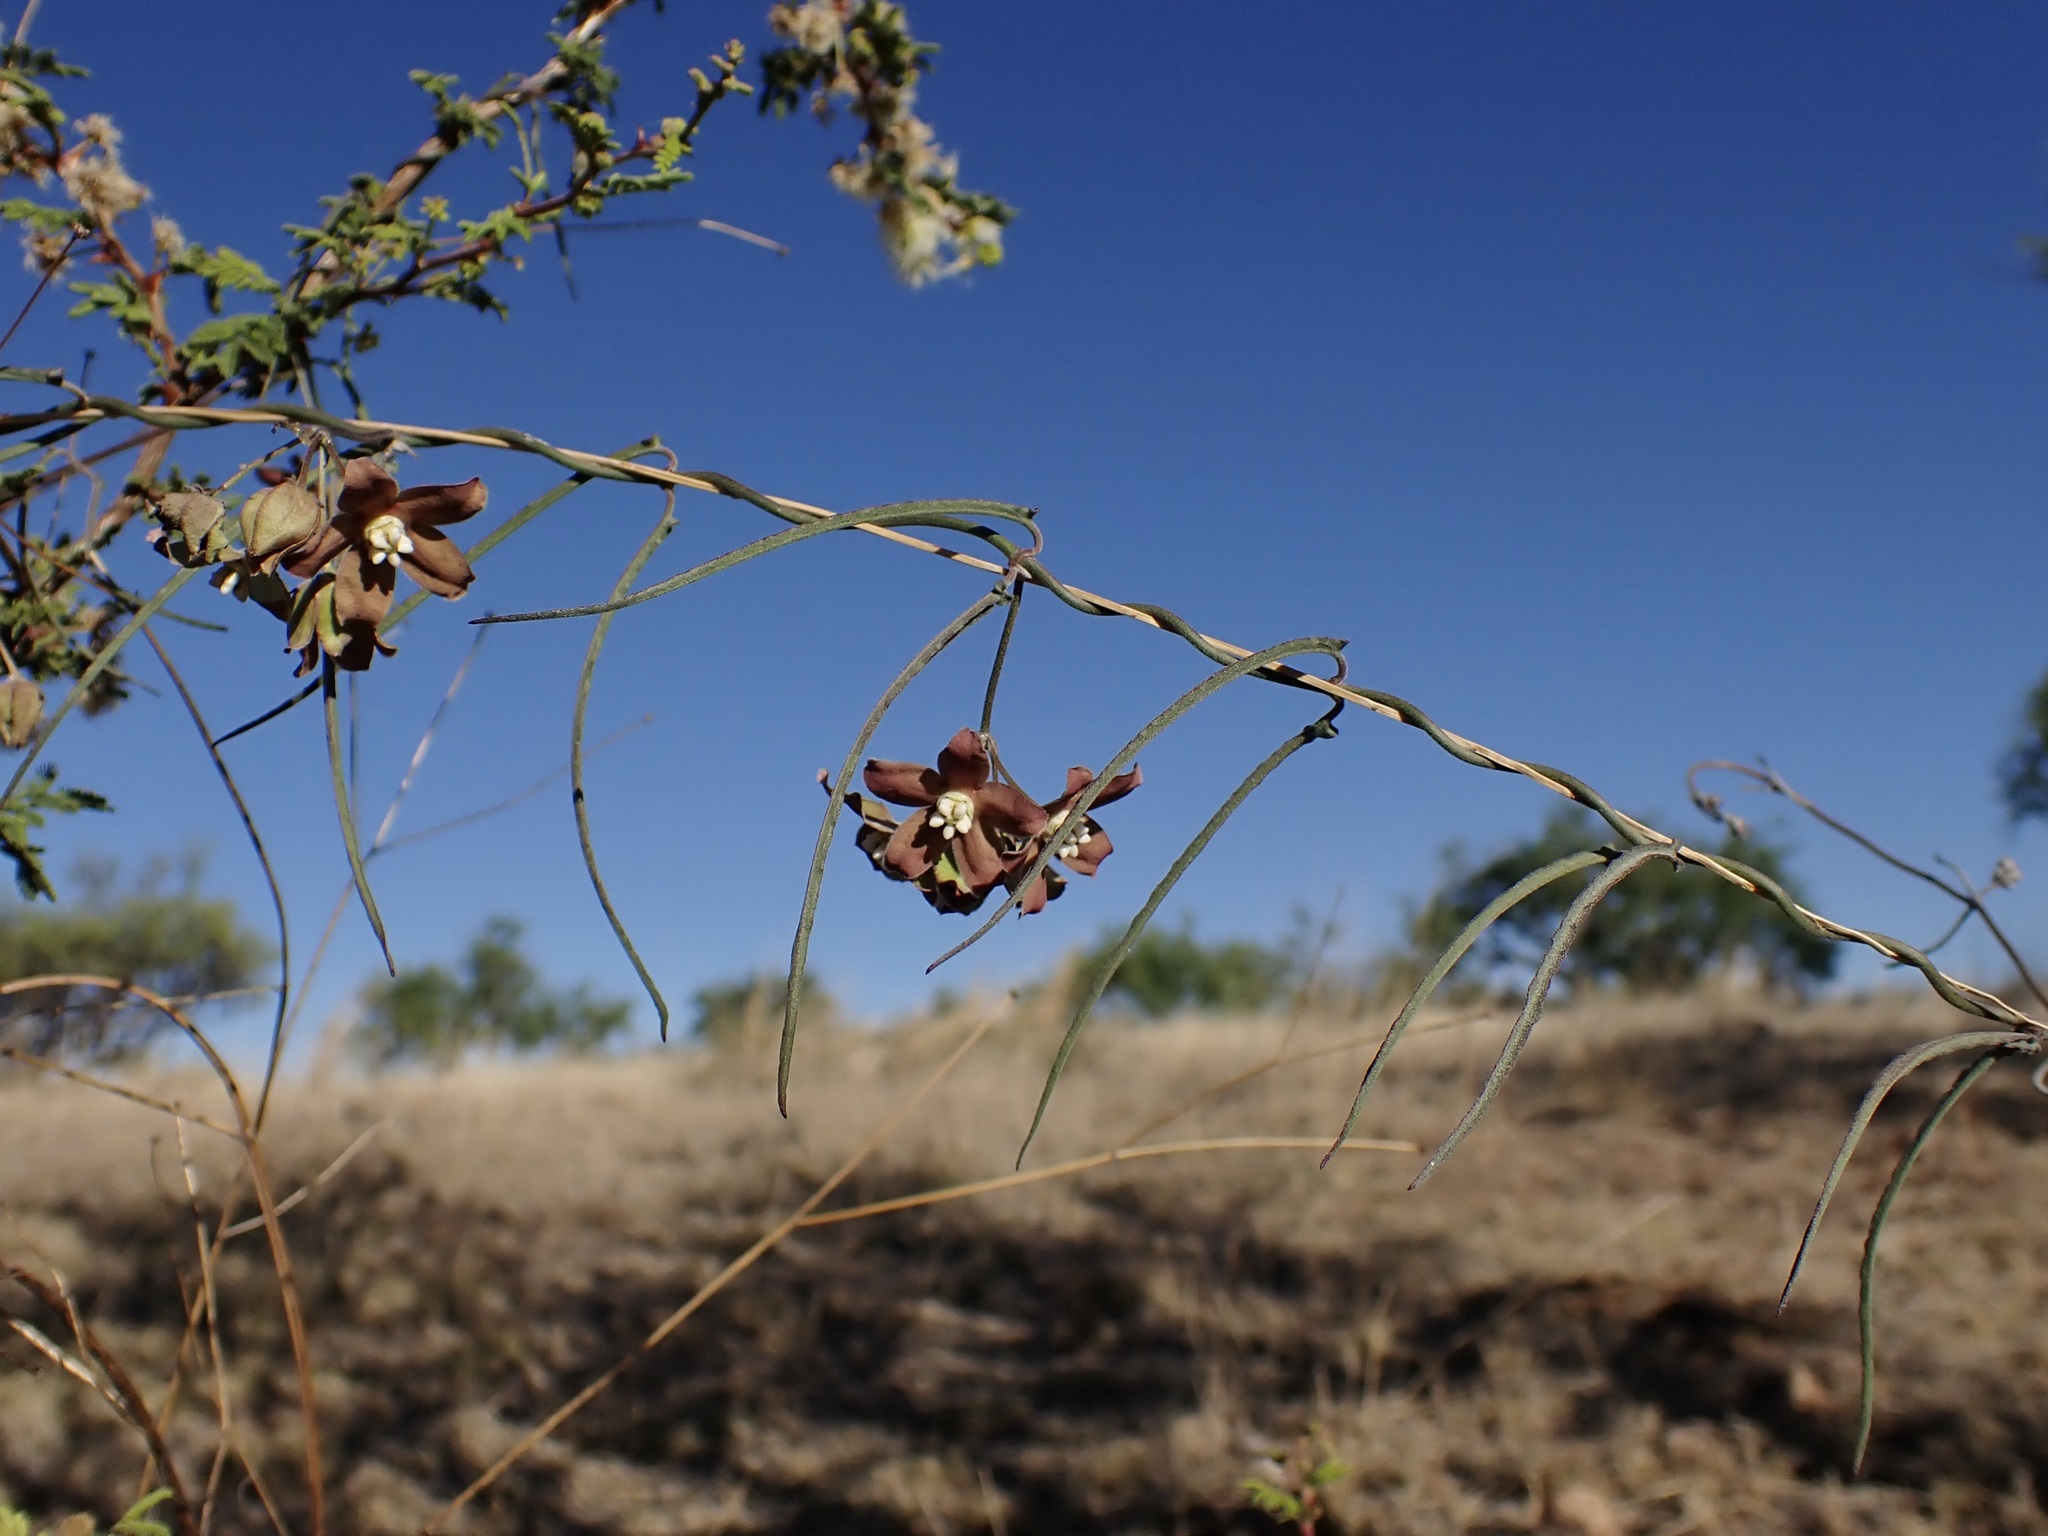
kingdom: Plantae
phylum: Tracheophyta
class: Magnoliopsida
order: Gentianales
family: Apocynaceae
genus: Funastrum
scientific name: Funastrum crispum
